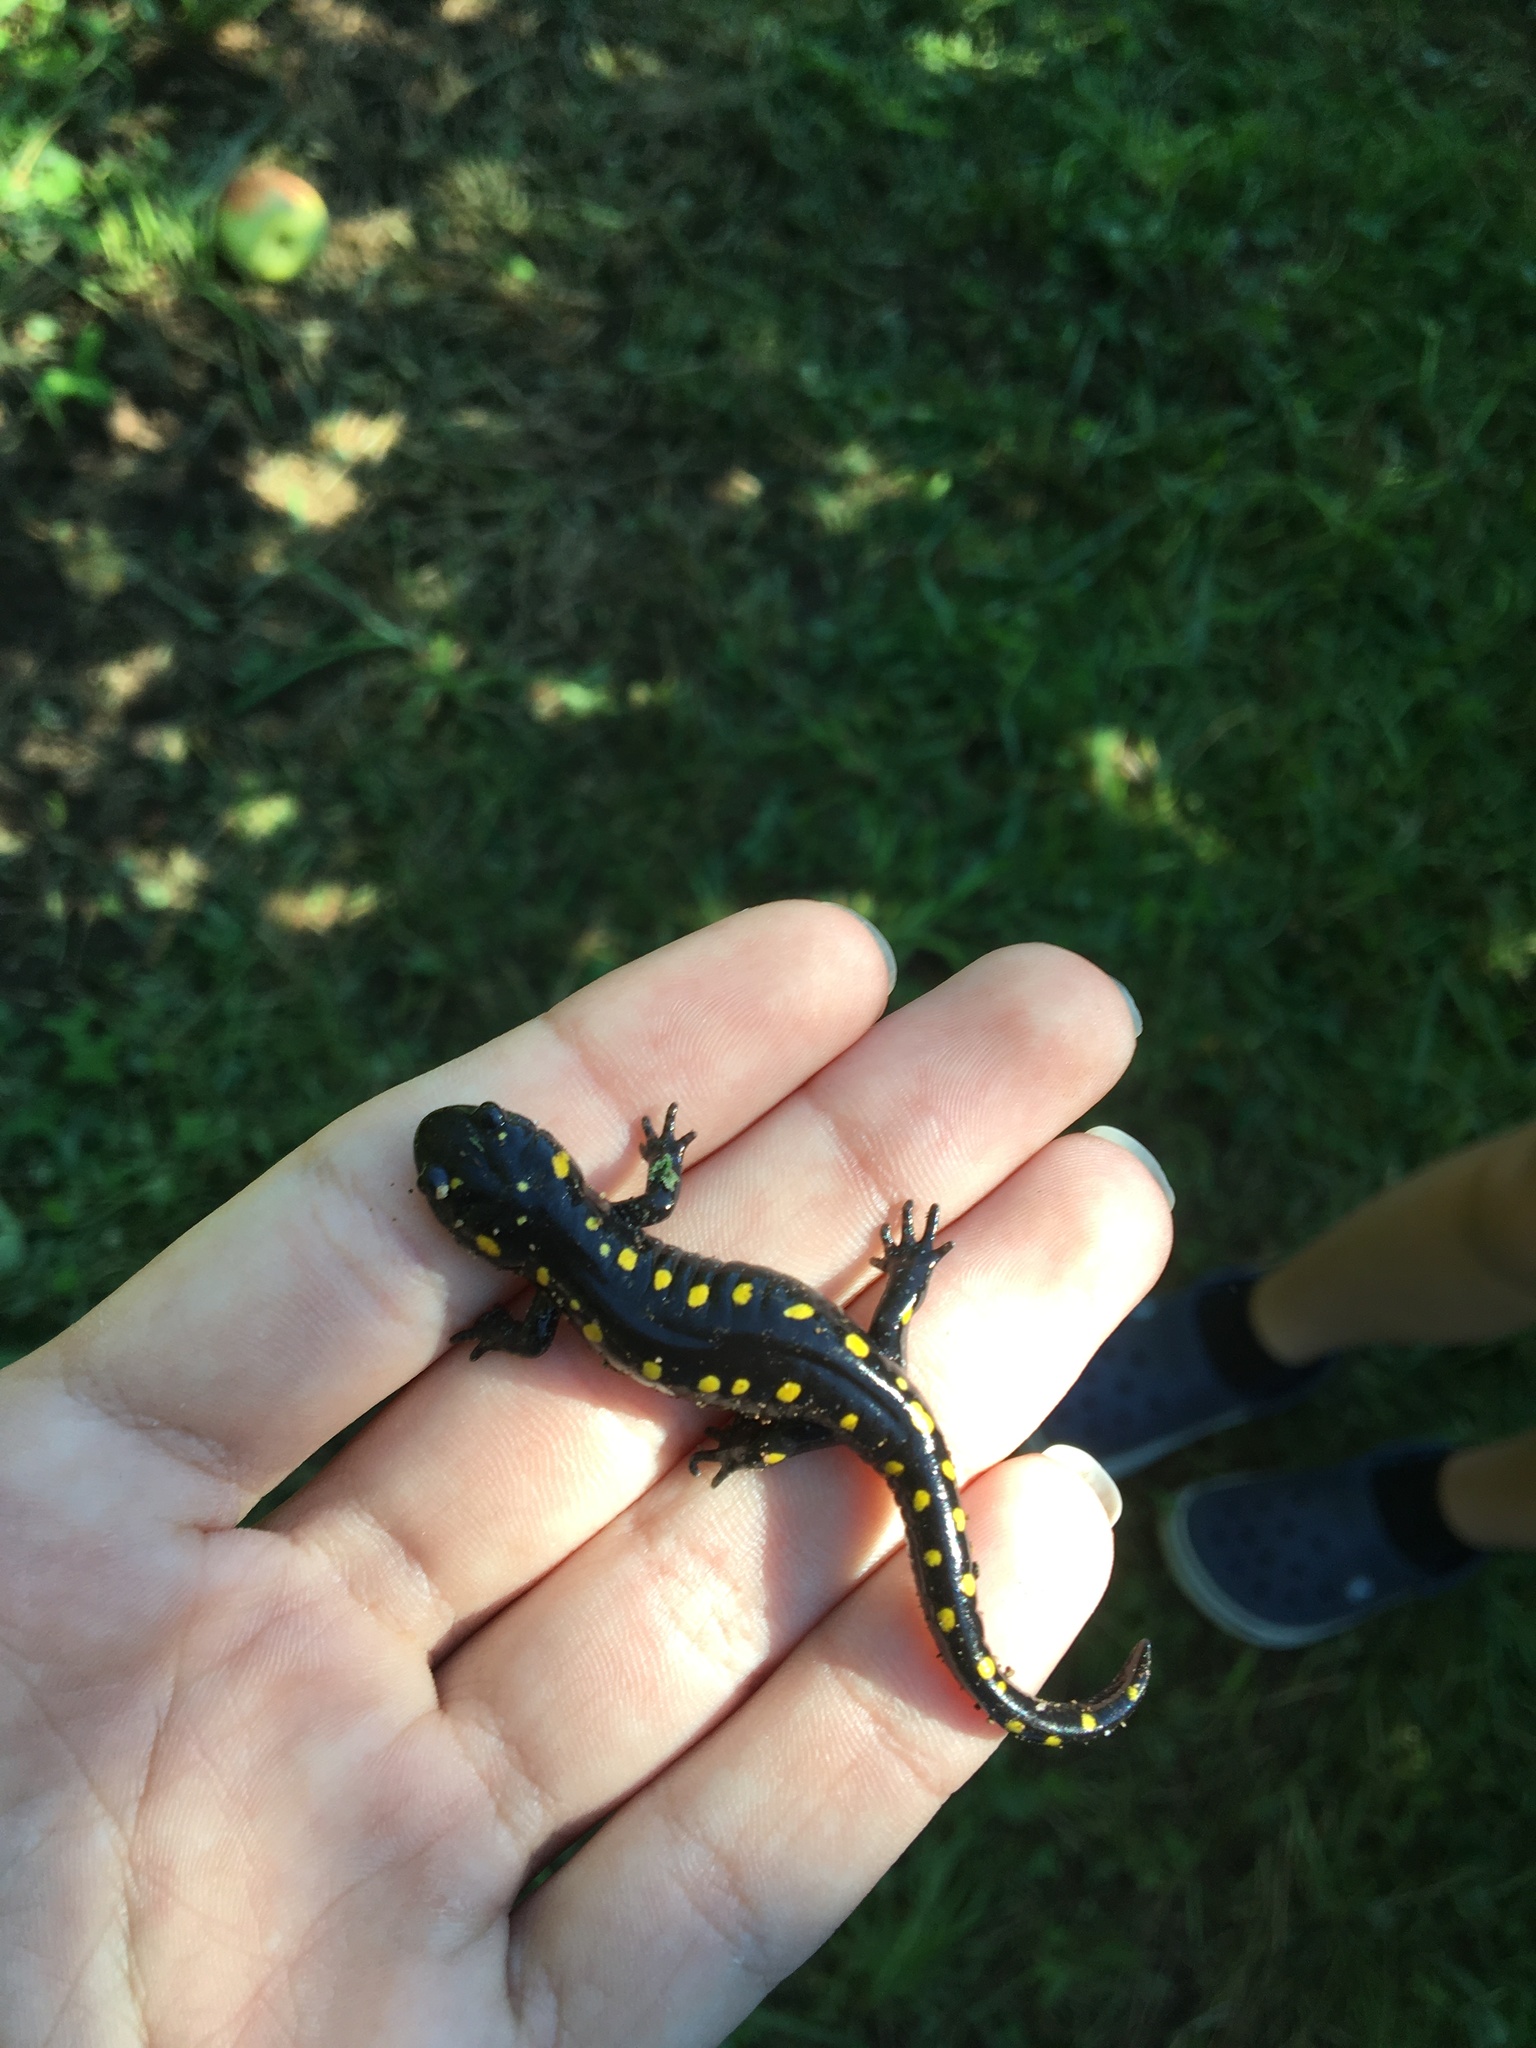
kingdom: Animalia
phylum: Chordata
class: Amphibia
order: Caudata
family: Ambystomatidae
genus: Ambystoma
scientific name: Ambystoma maculatum
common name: Spotted salamander
